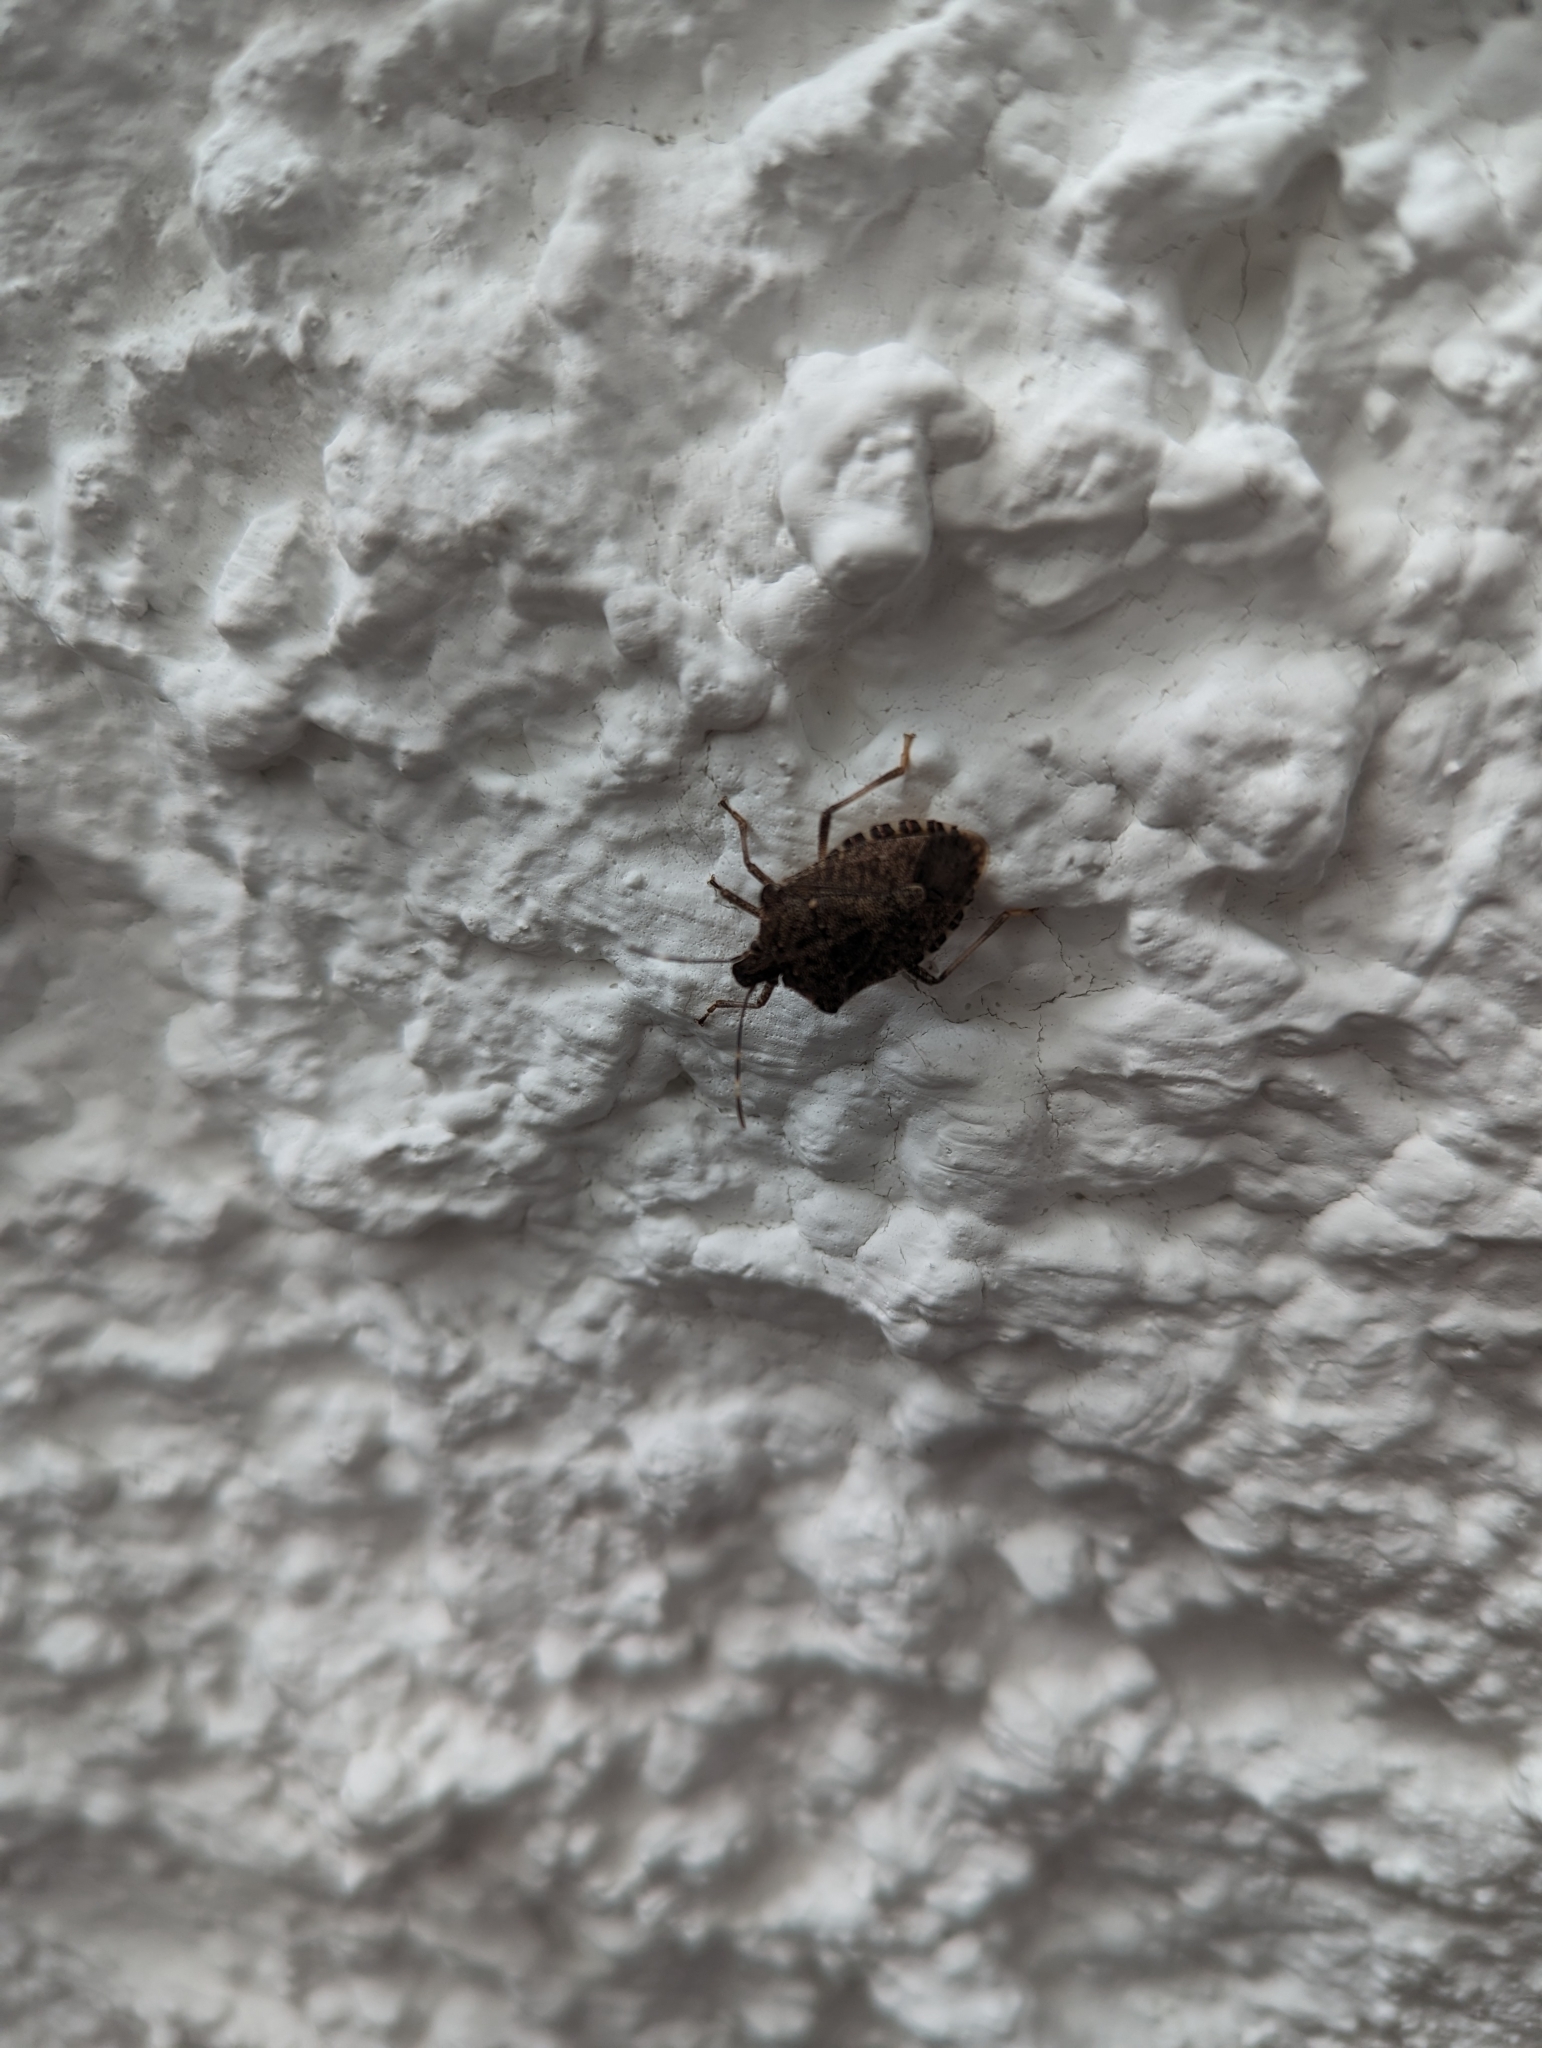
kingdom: Animalia
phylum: Arthropoda
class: Insecta
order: Hemiptera
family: Pentatomidae
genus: Halyomorpha
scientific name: Halyomorpha halys
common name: Brown marmorated stink bug
